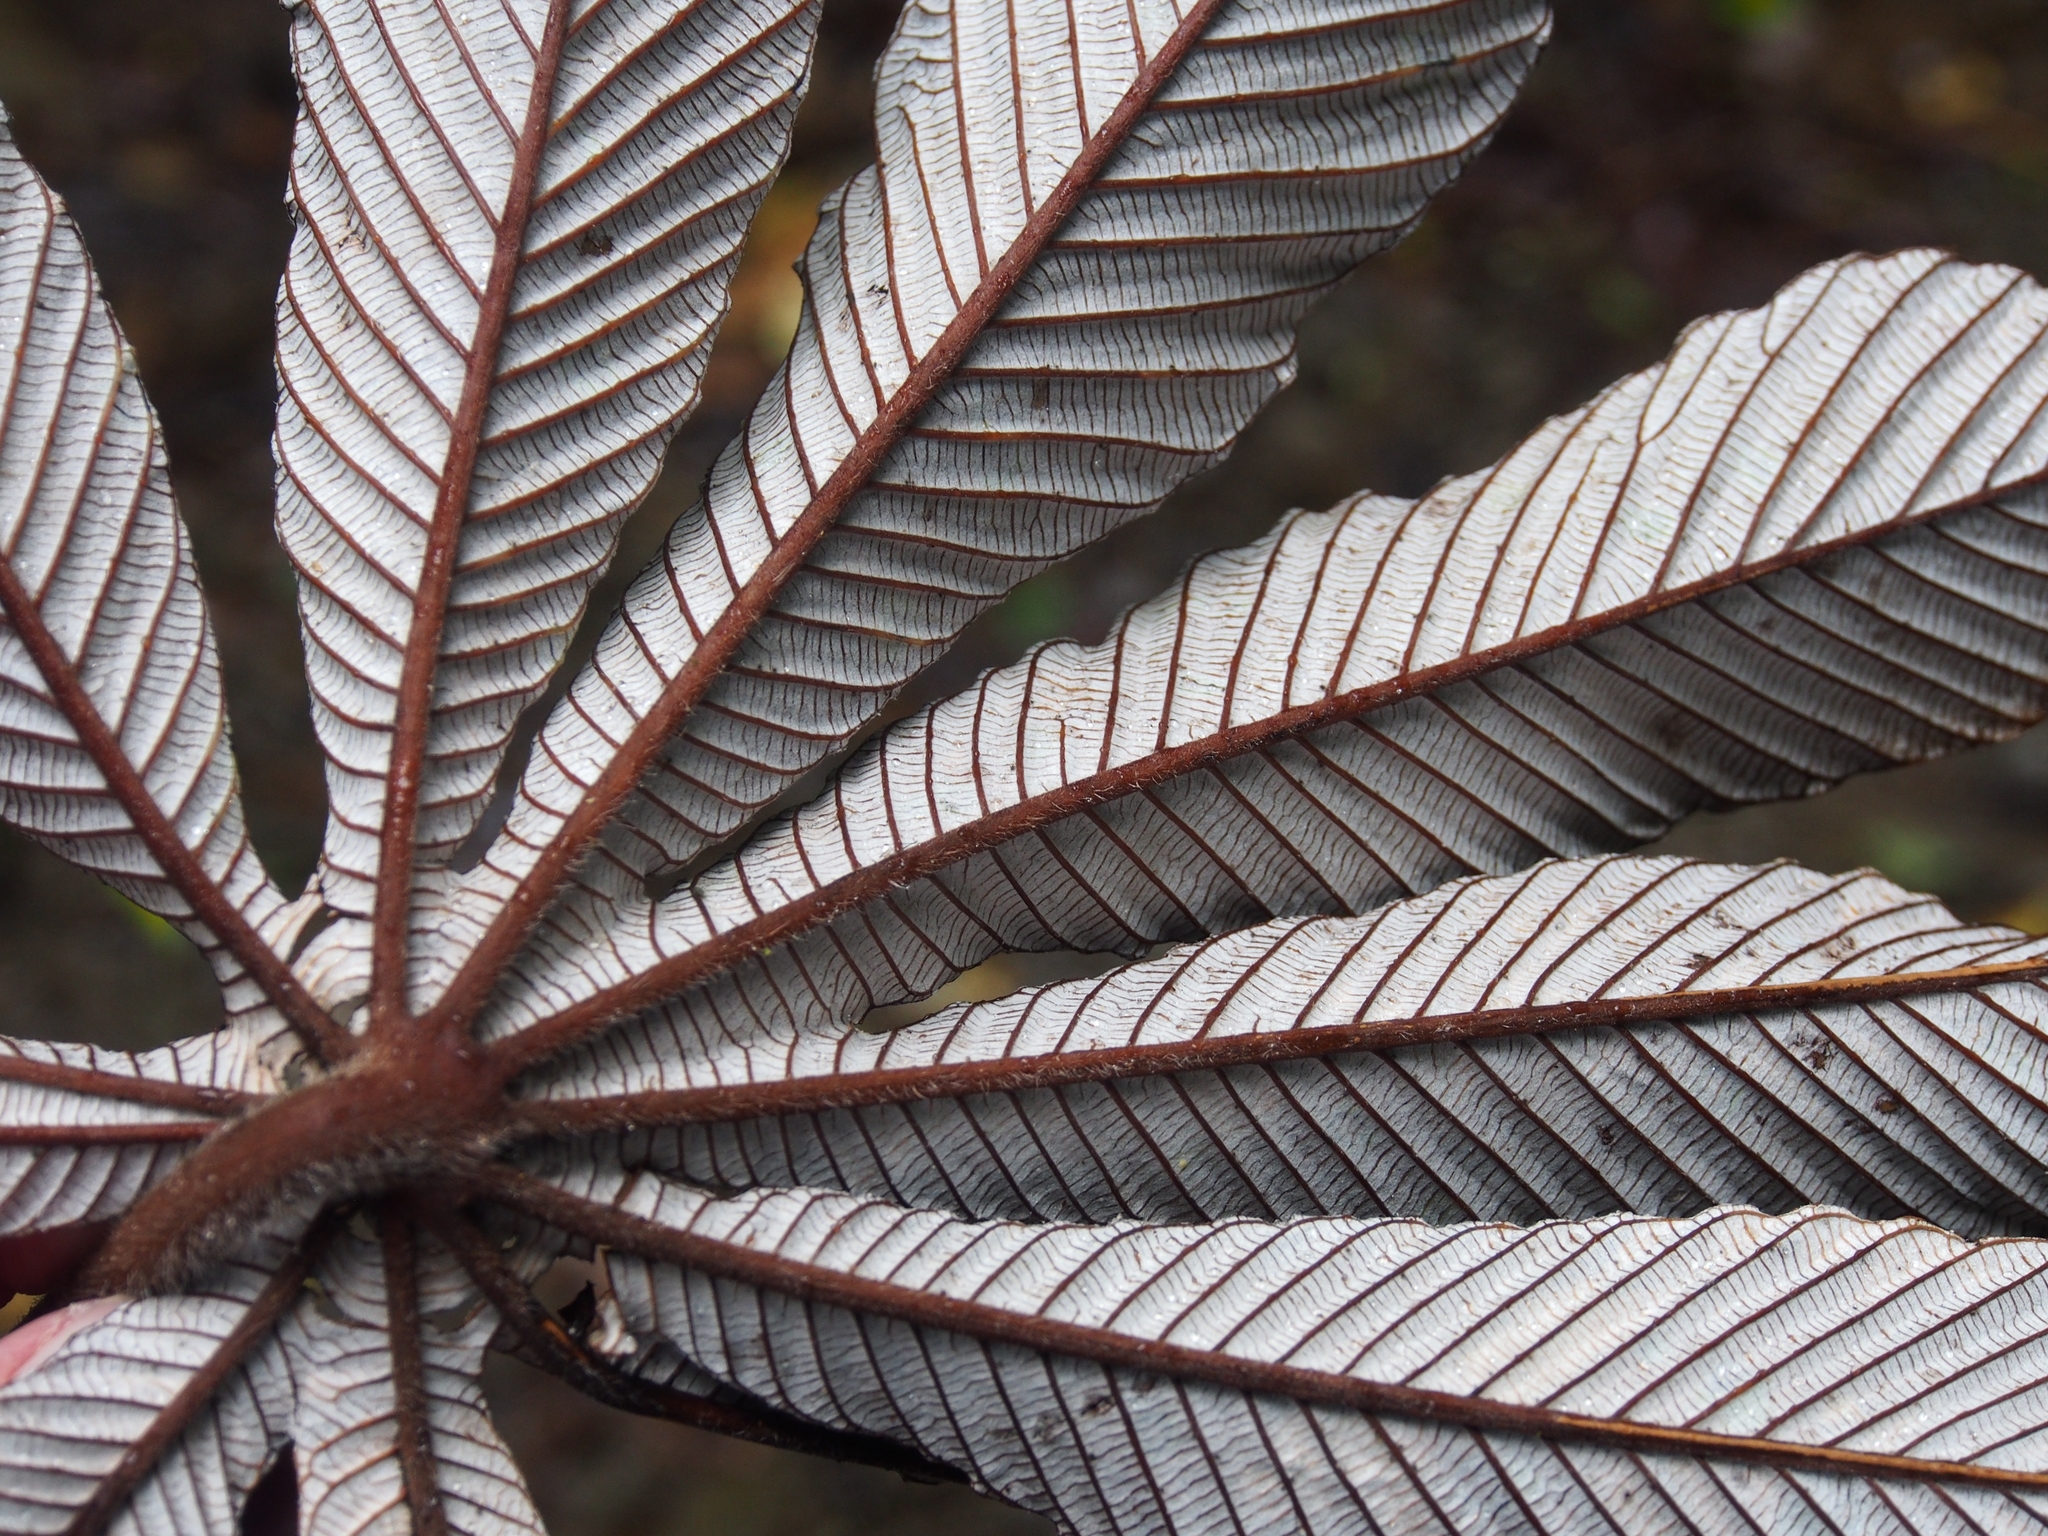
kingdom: Animalia
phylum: Chordata
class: Mammalia
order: Carnivora
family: Procyonidae
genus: Nasua
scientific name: Nasua narica
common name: White-nosed coati
